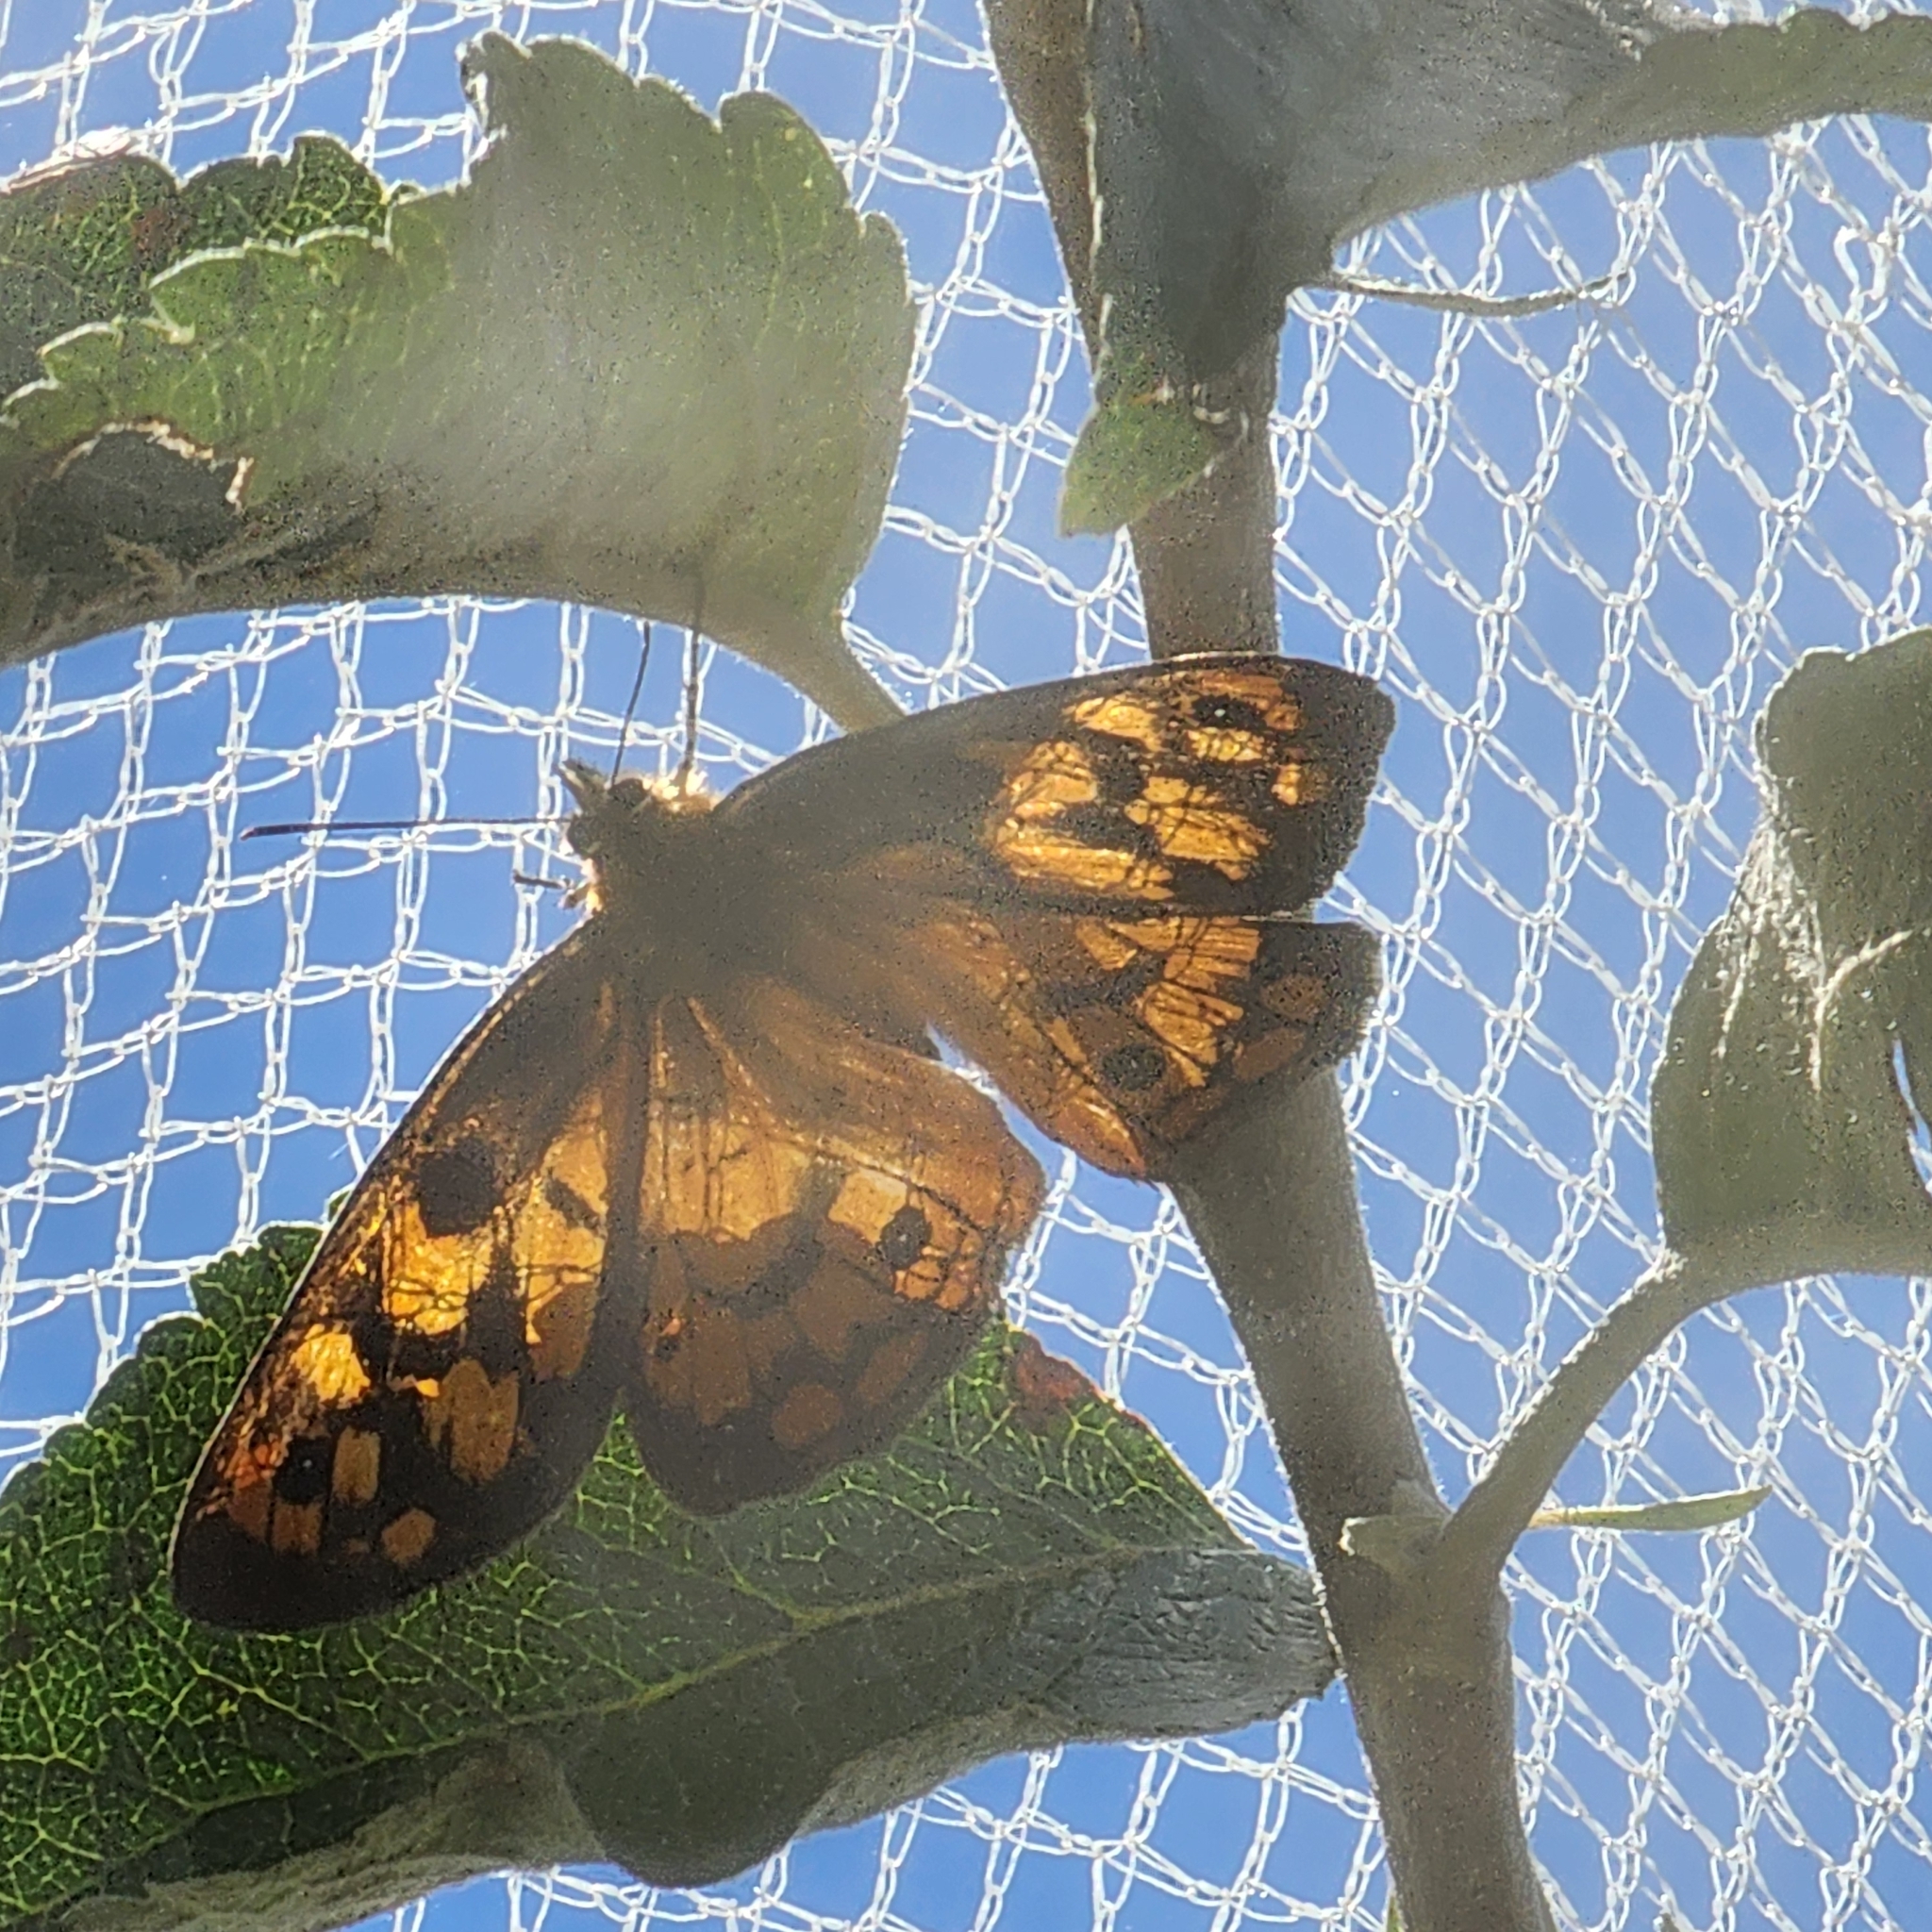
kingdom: Animalia
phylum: Arthropoda
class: Insecta
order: Lepidoptera
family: Nymphalidae
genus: Heteronympha
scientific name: Heteronympha penelope
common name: Shouldered brown
